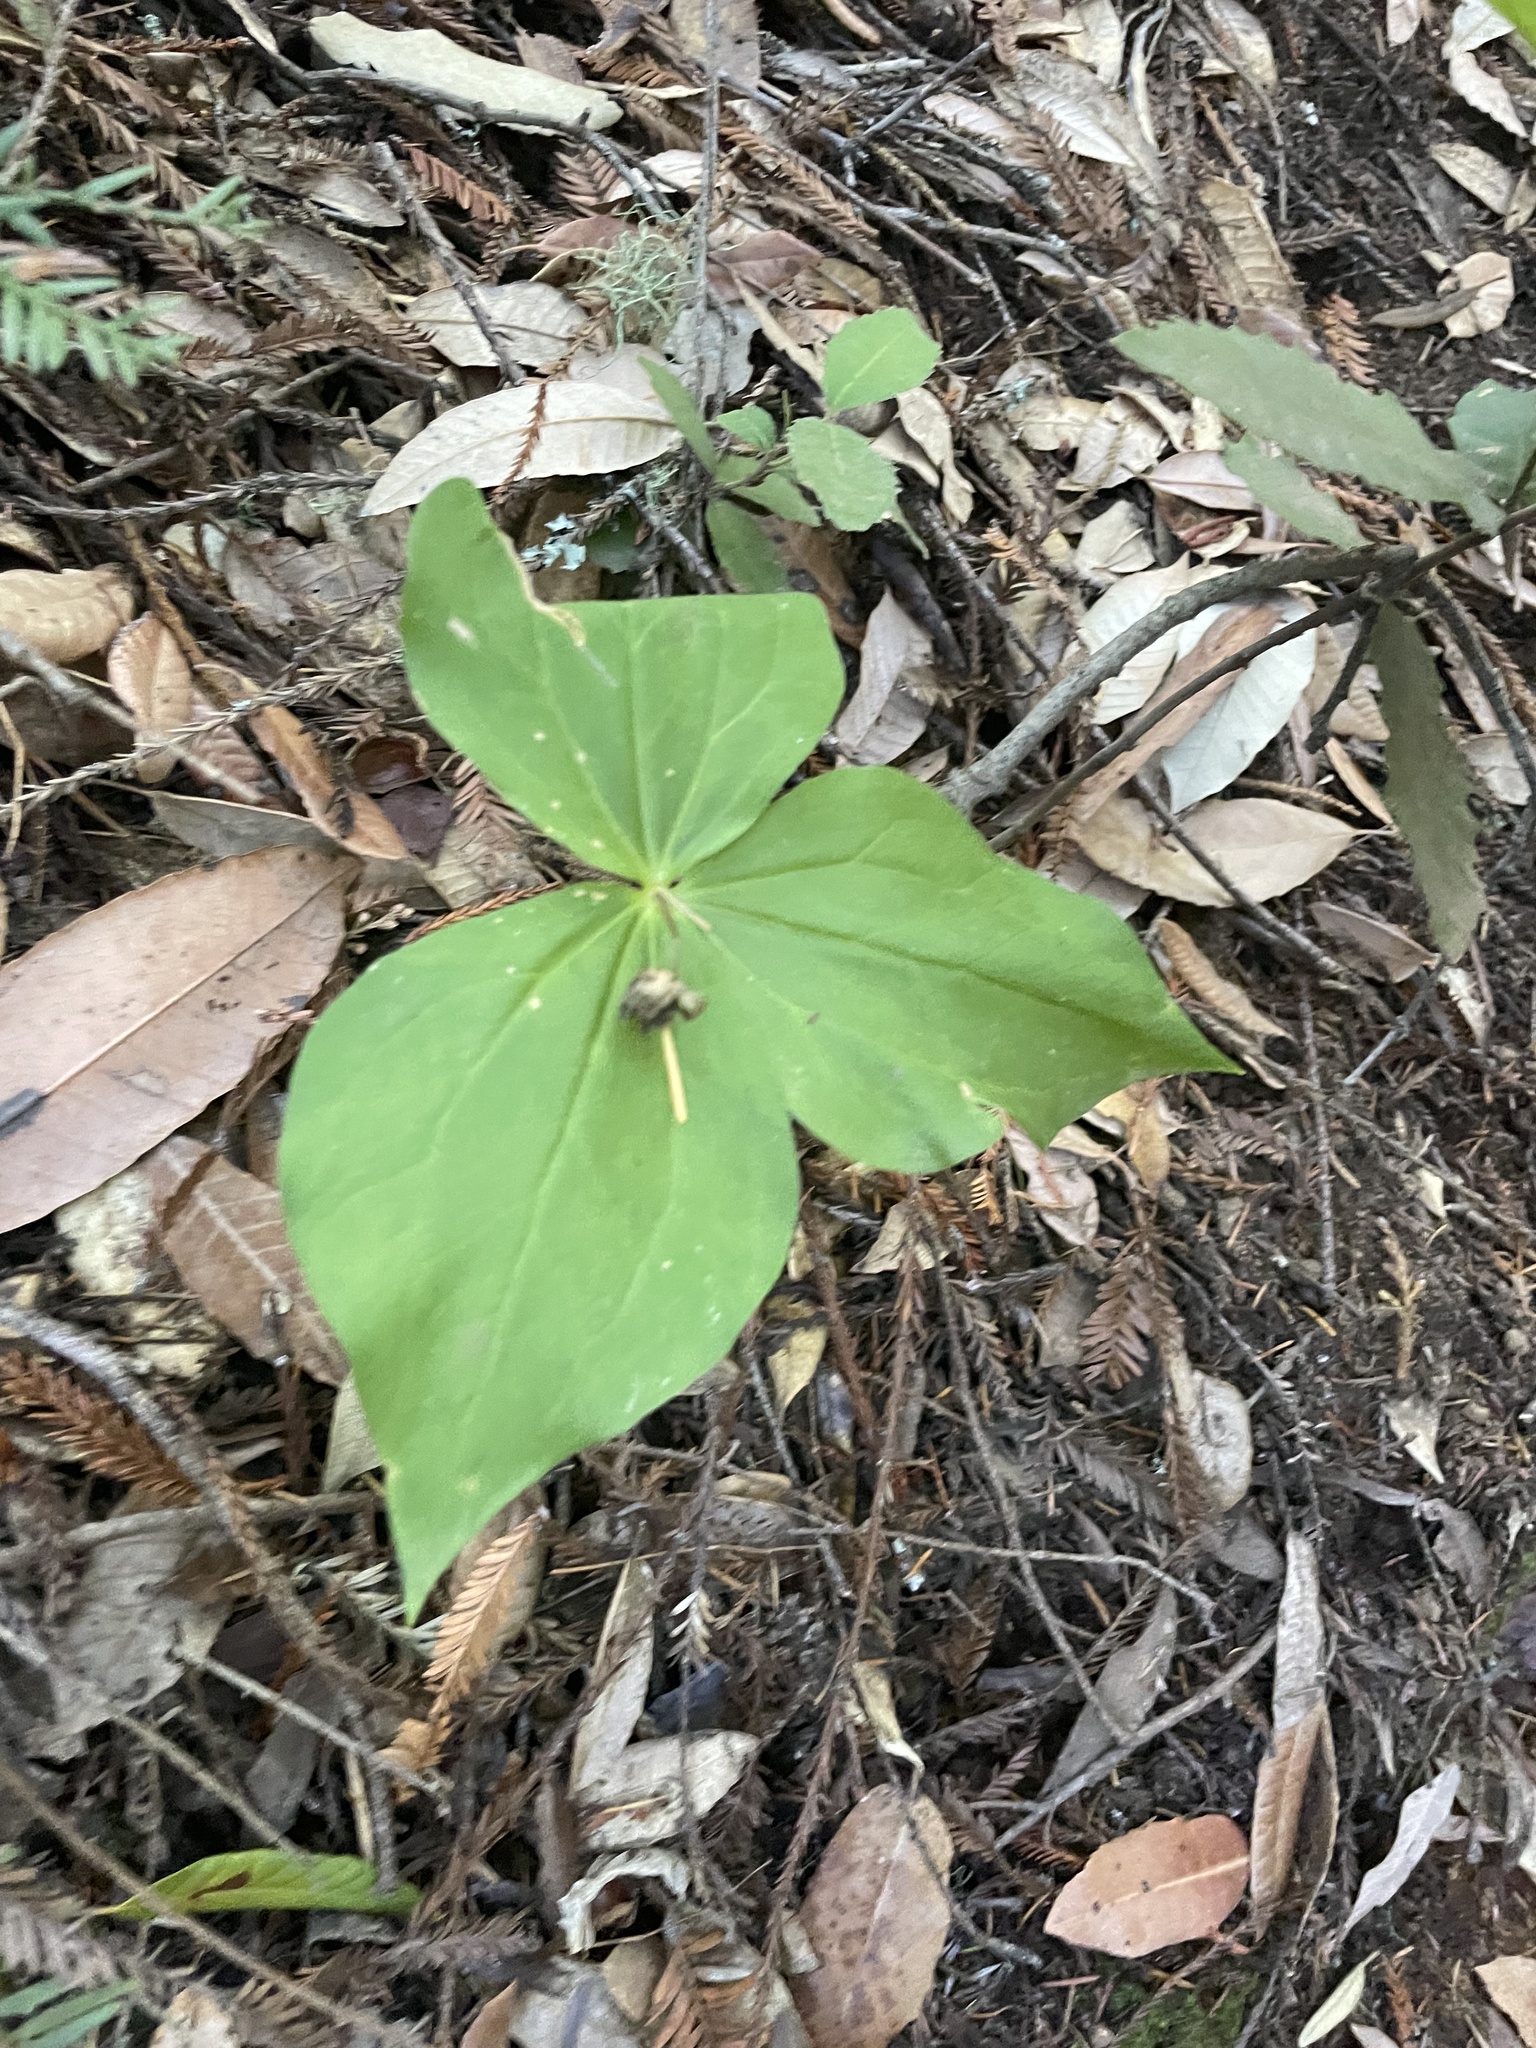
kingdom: Plantae
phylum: Tracheophyta
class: Liliopsida
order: Liliales
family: Melanthiaceae
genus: Trillium
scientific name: Trillium ovatum
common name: Pacific trillium
